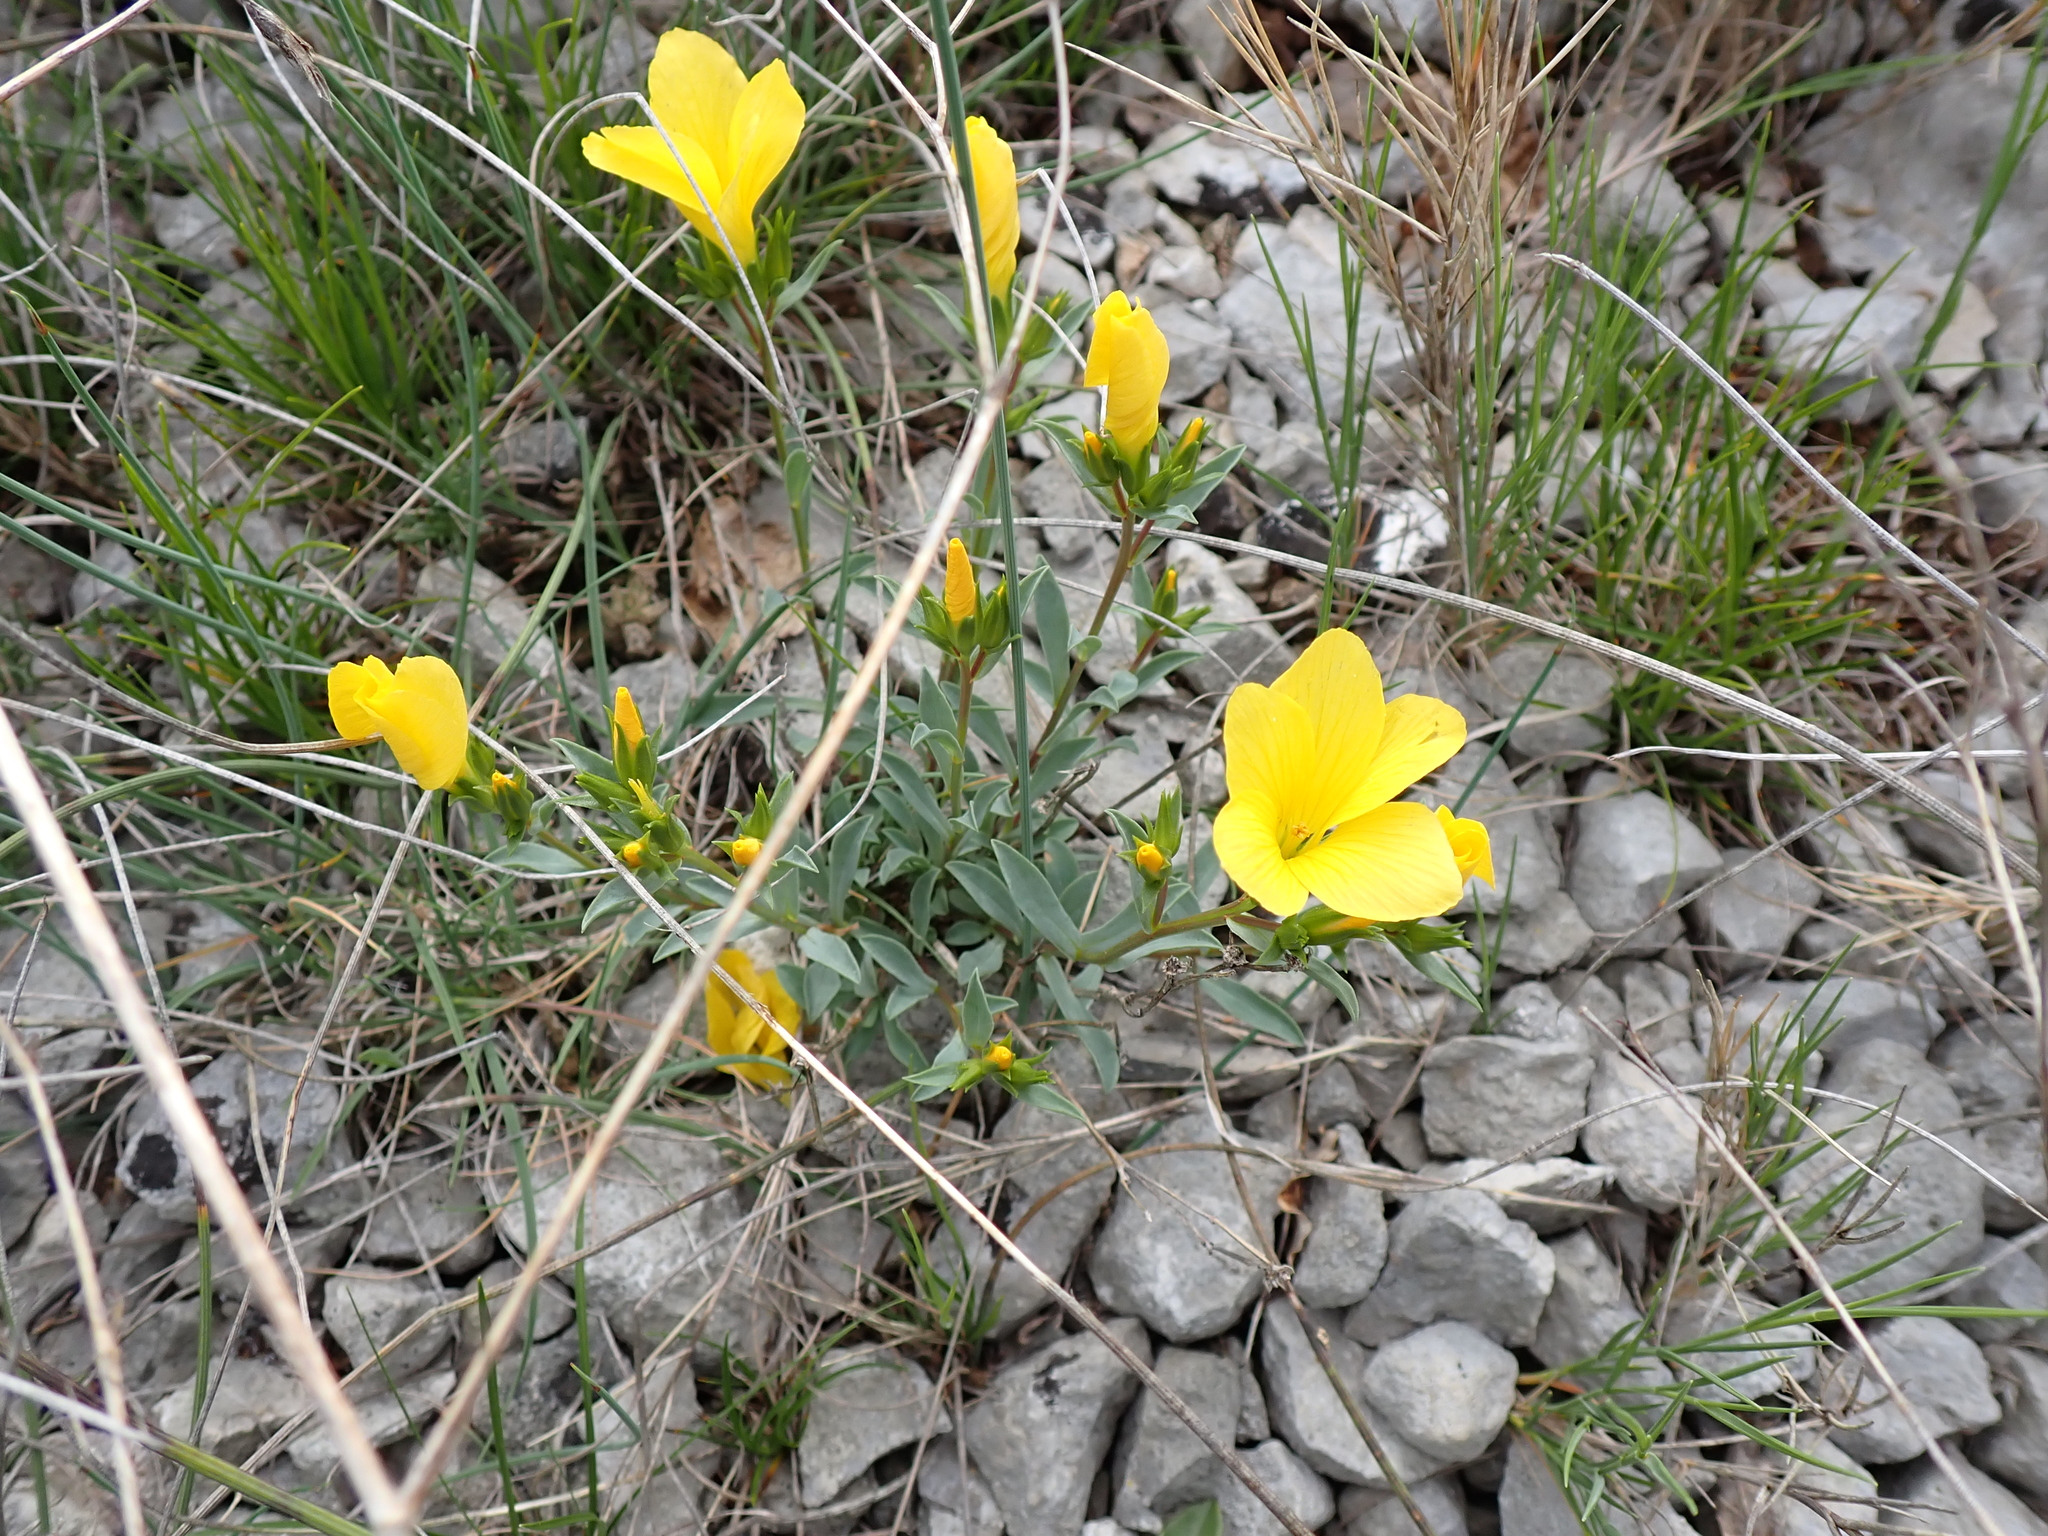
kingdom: Plantae
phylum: Tracheophyta
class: Magnoliopsida
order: Malpighiales
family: Linaceae
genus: Linum
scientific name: Linum campanulatum
